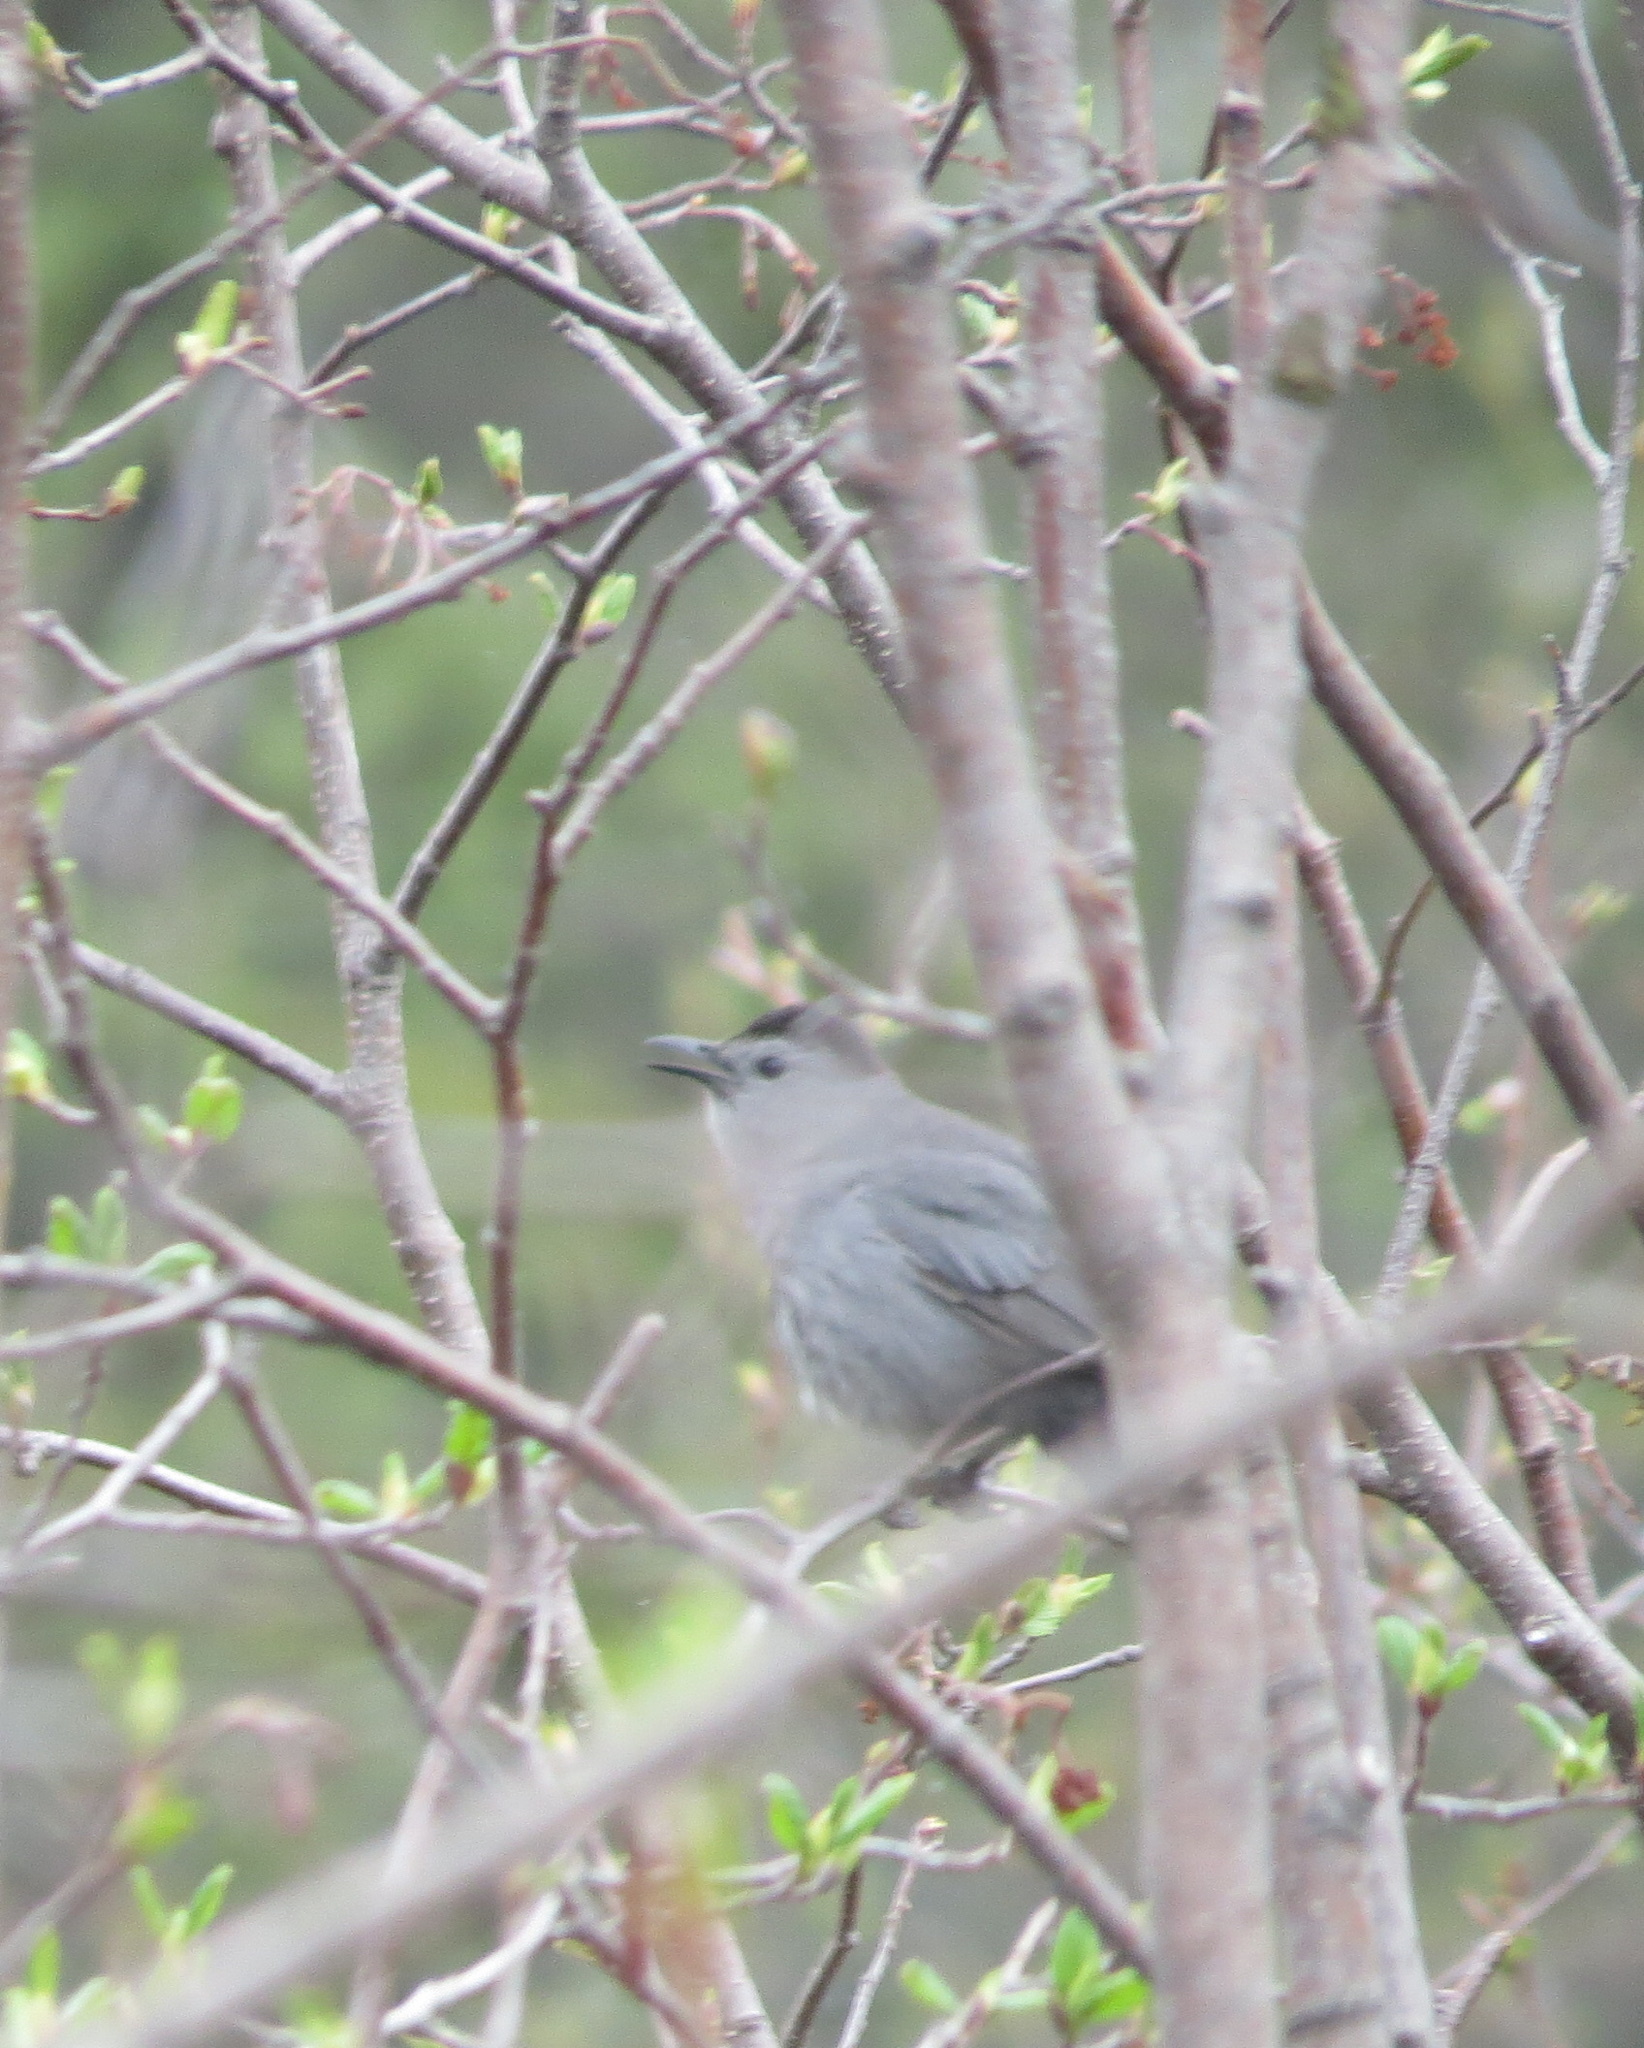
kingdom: Animalia
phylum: Chordata
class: Aves
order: Passeriformes
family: Mimidae
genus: Dumetella
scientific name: Dumetella carolinensis
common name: Gray catbird
